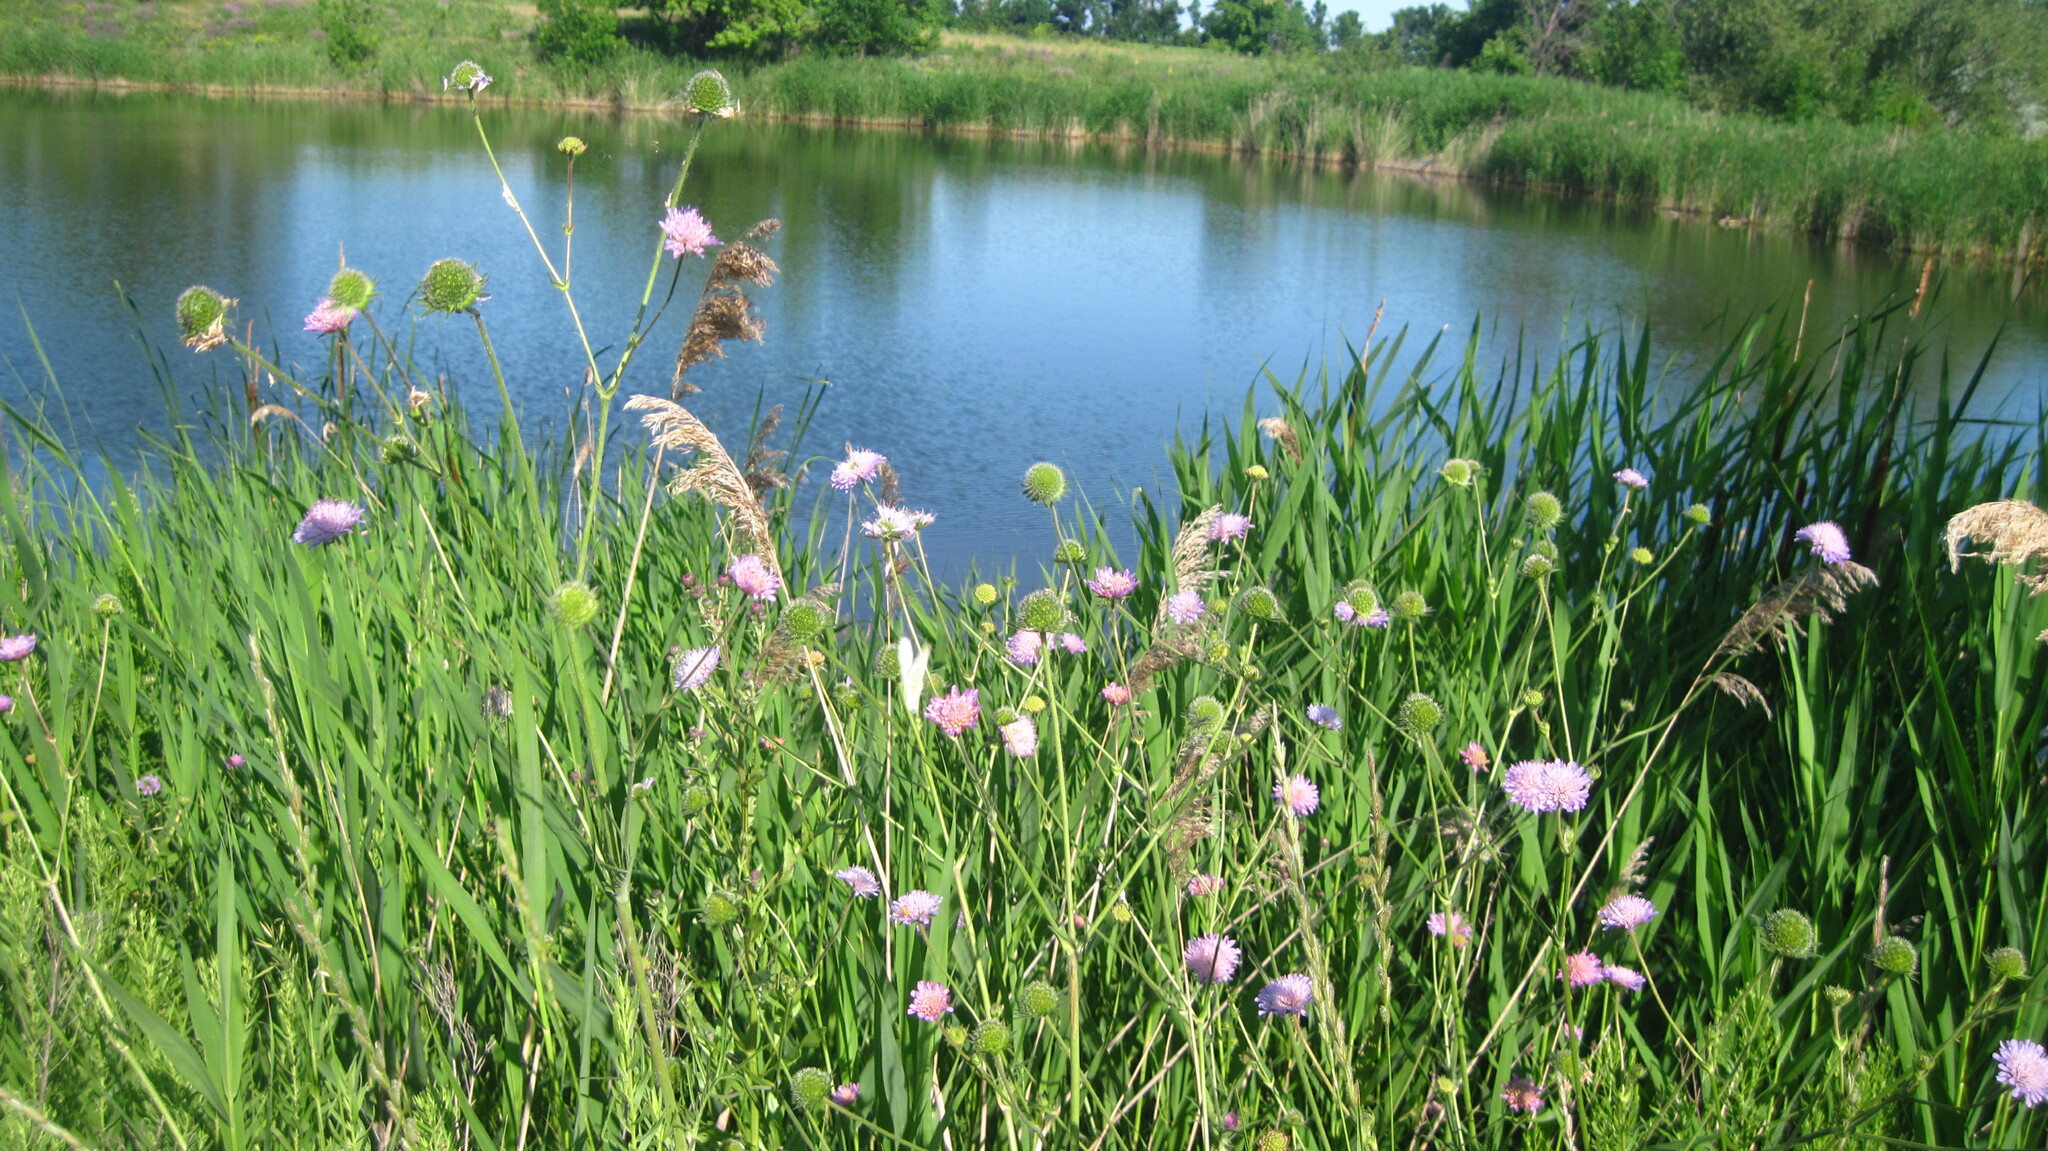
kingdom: Plantae
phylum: Tracheophyta
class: Magnoliopsida
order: Dipsacales
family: Caprifoliaceae
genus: Knautia
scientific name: Knautia arvensis
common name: Field scabiosa
